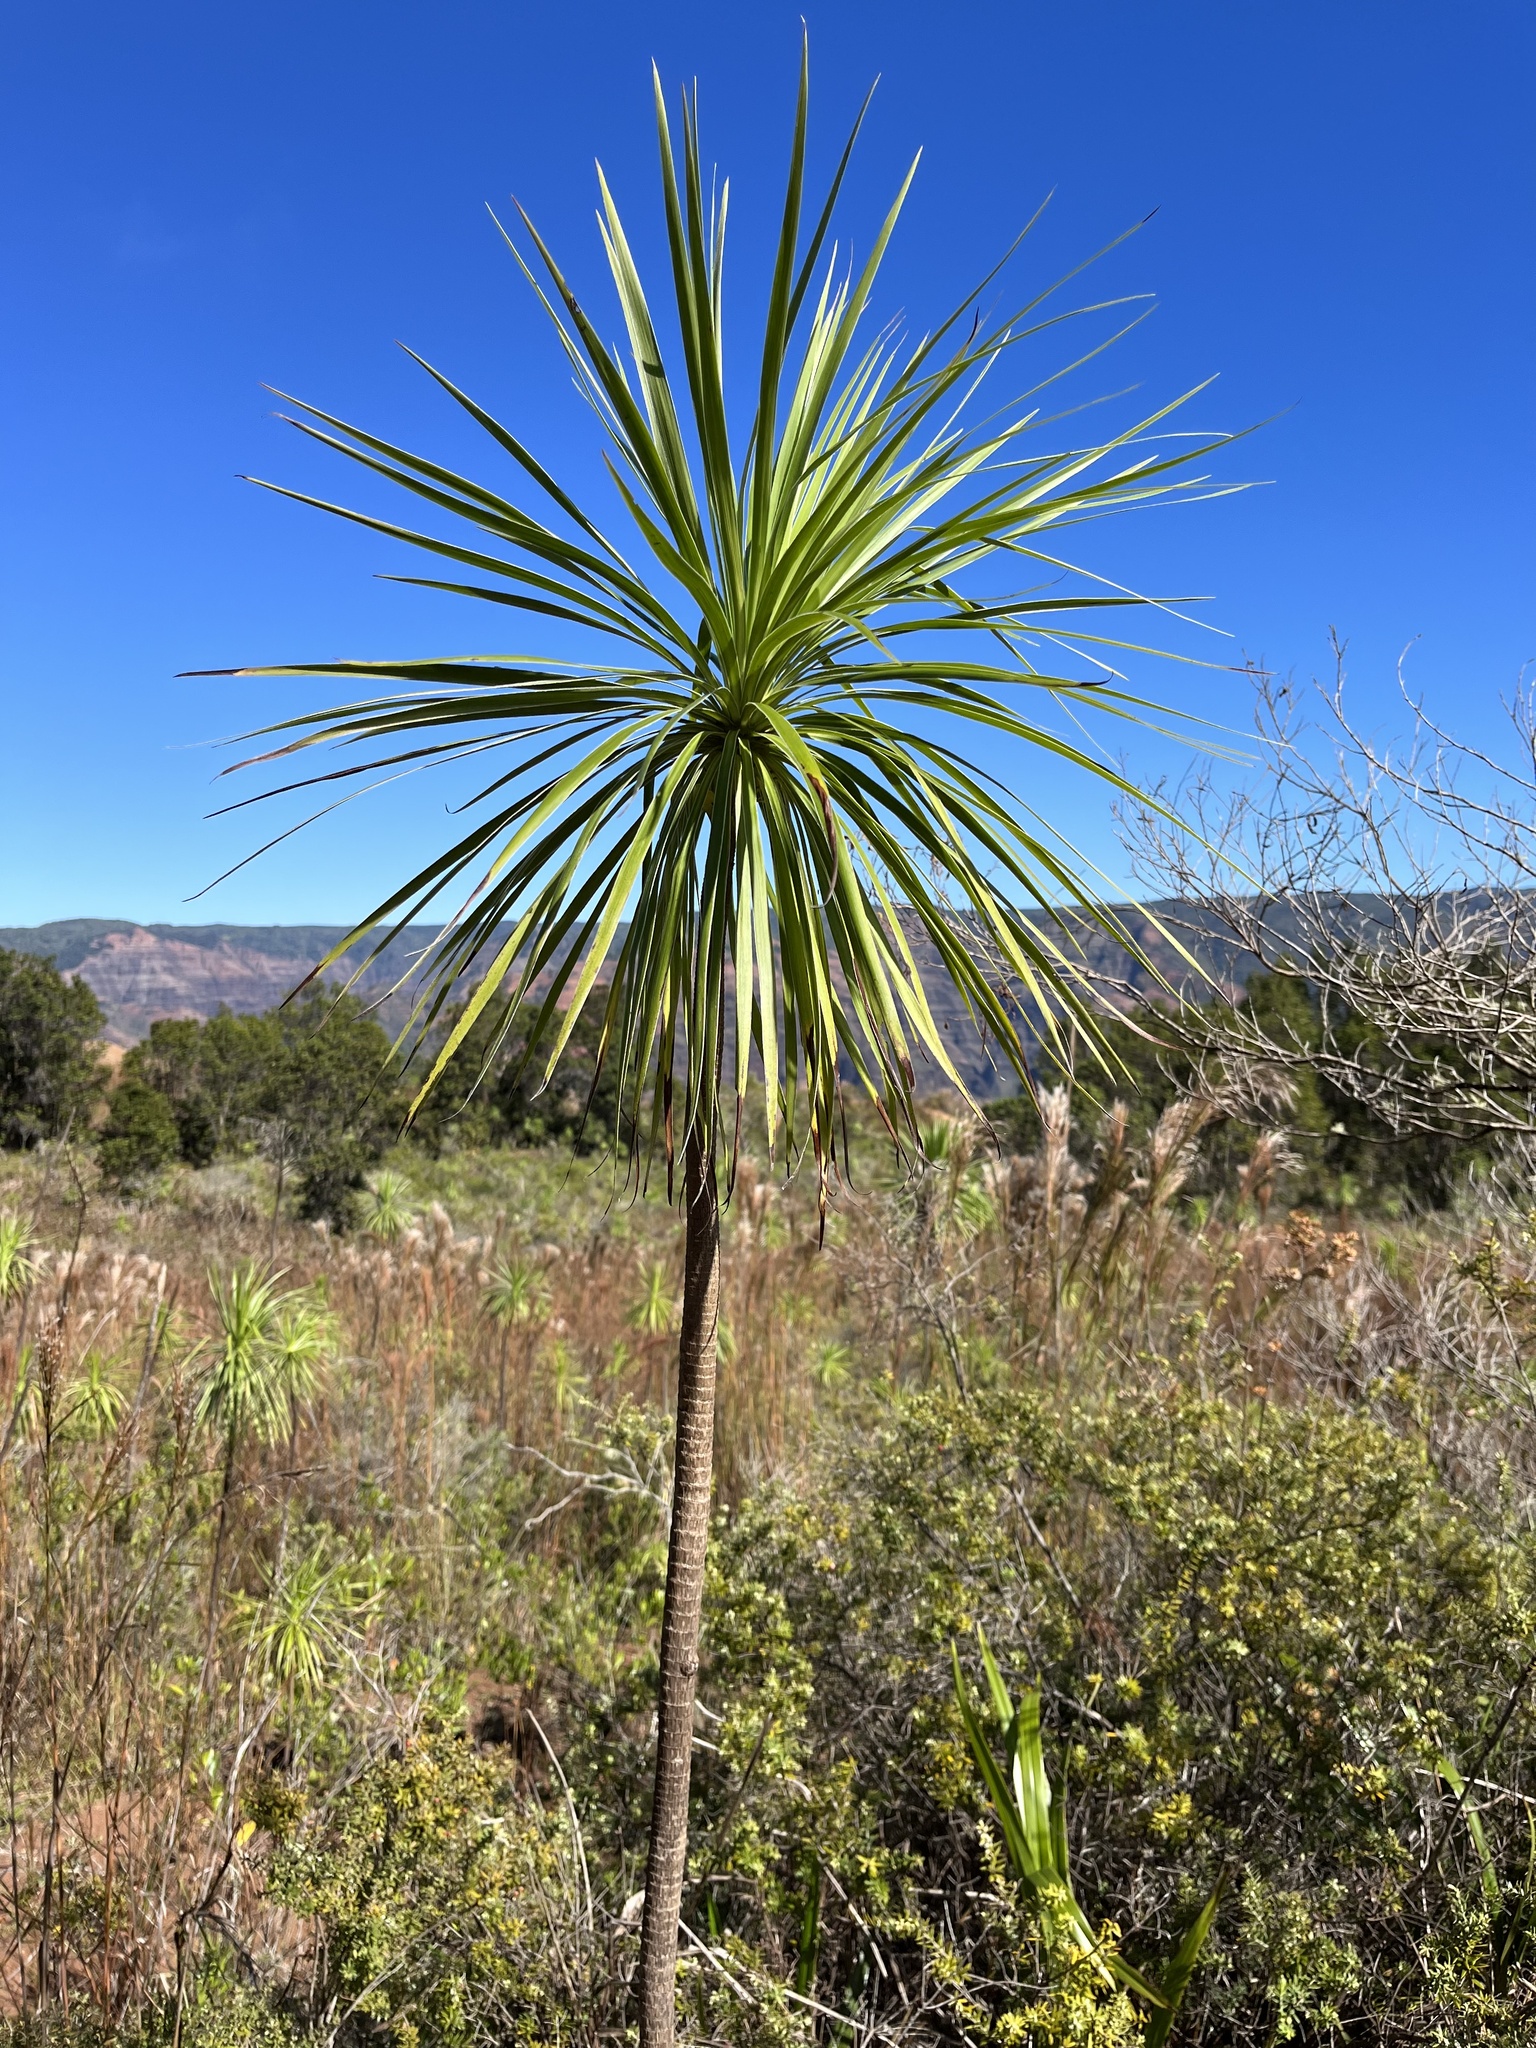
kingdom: Plantae
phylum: Tracheophyta
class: Magnoliopsida
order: Asterales
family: Asteraceae
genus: Wilkesia
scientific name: Wilkesia gymnoxiphium
